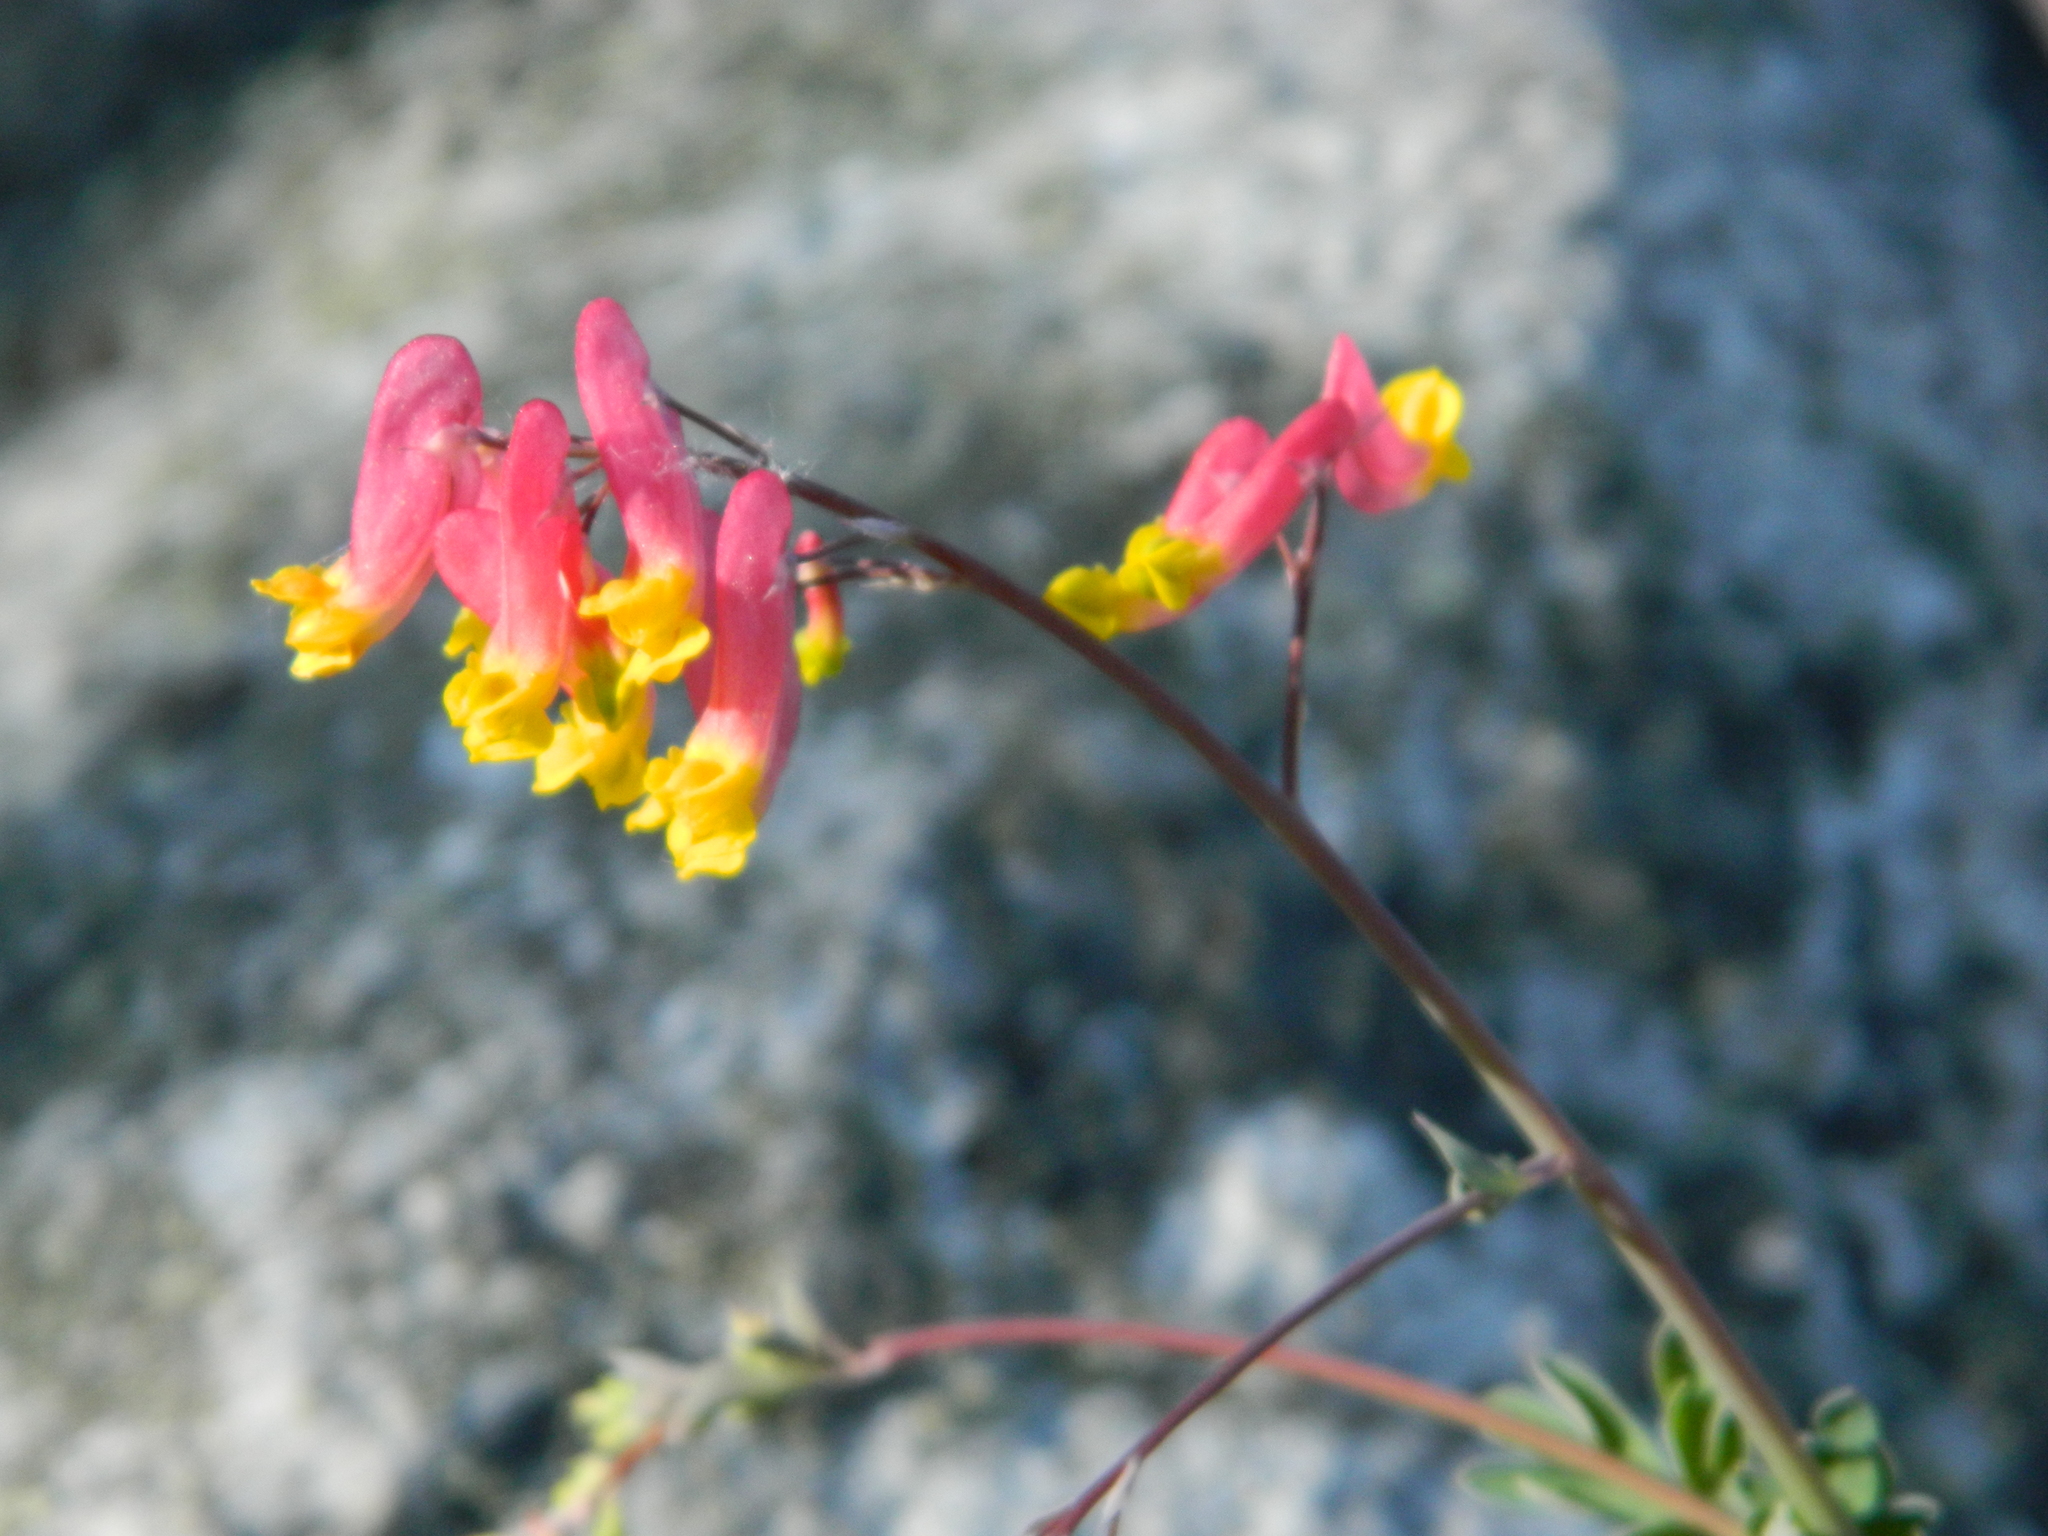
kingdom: Plantae
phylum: Tracheophyta
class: Magnoliopsida
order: Ranunculales
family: Papaveraceae
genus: Capnoides
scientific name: Capnoides sempervirens
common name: Rock harlequin
